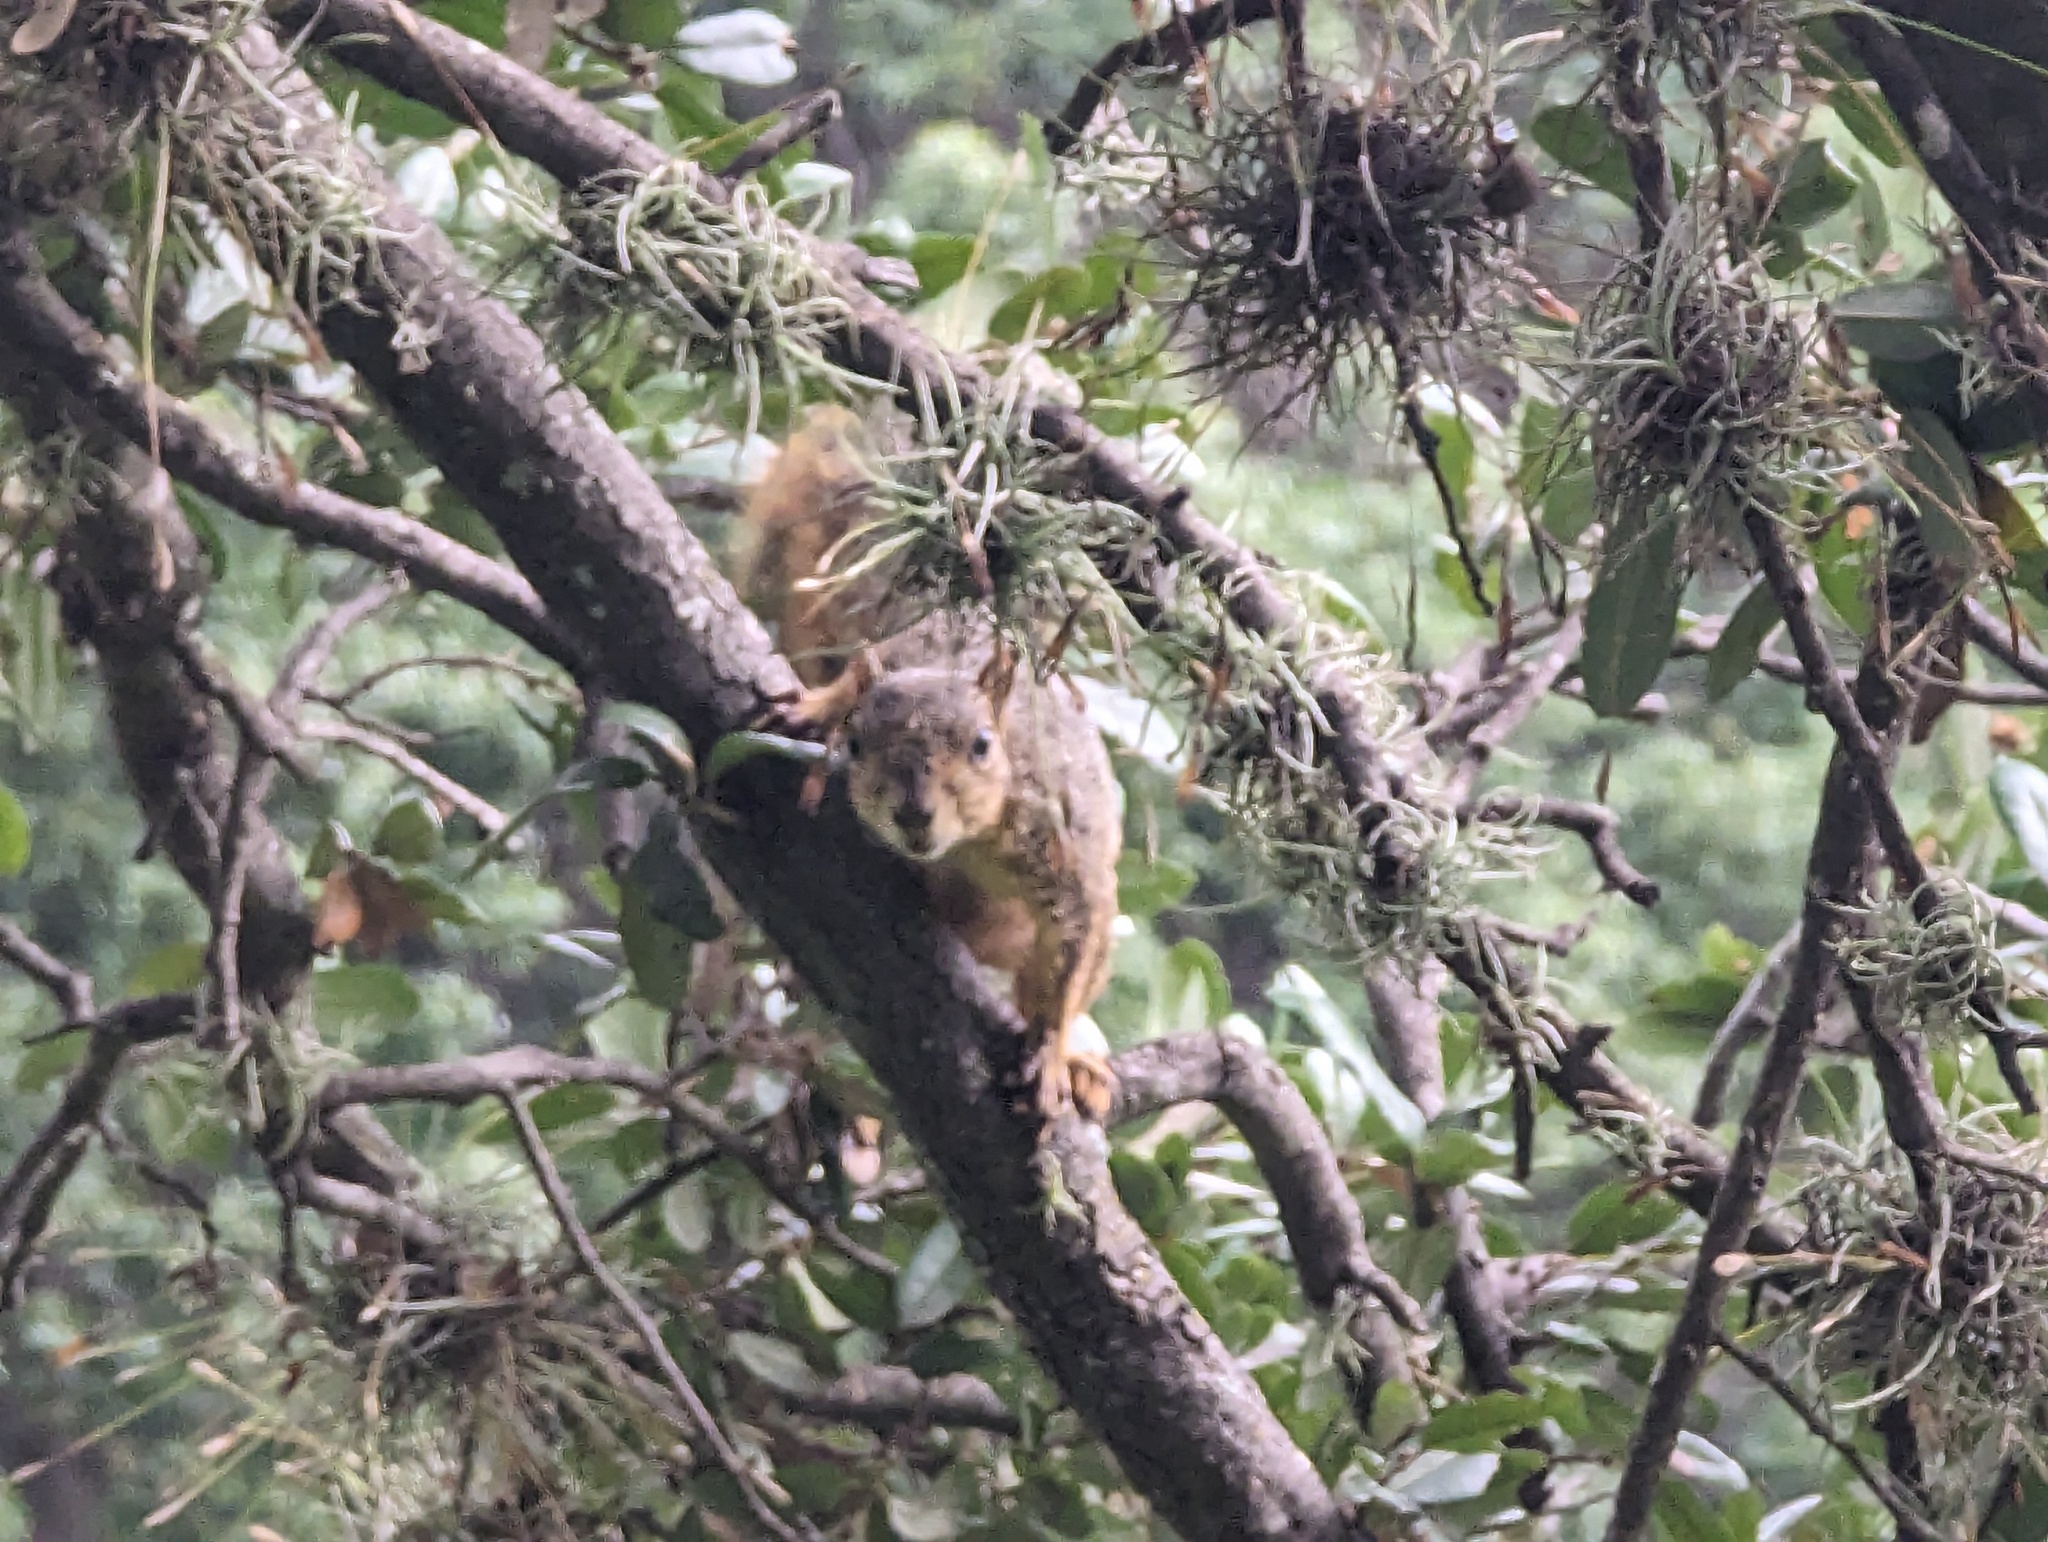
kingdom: Animalia
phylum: Chordata
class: Mammalia
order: Rodentia
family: Sciuridae
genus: Sciurus
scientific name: Sciurus niger
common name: Fox squirrel
